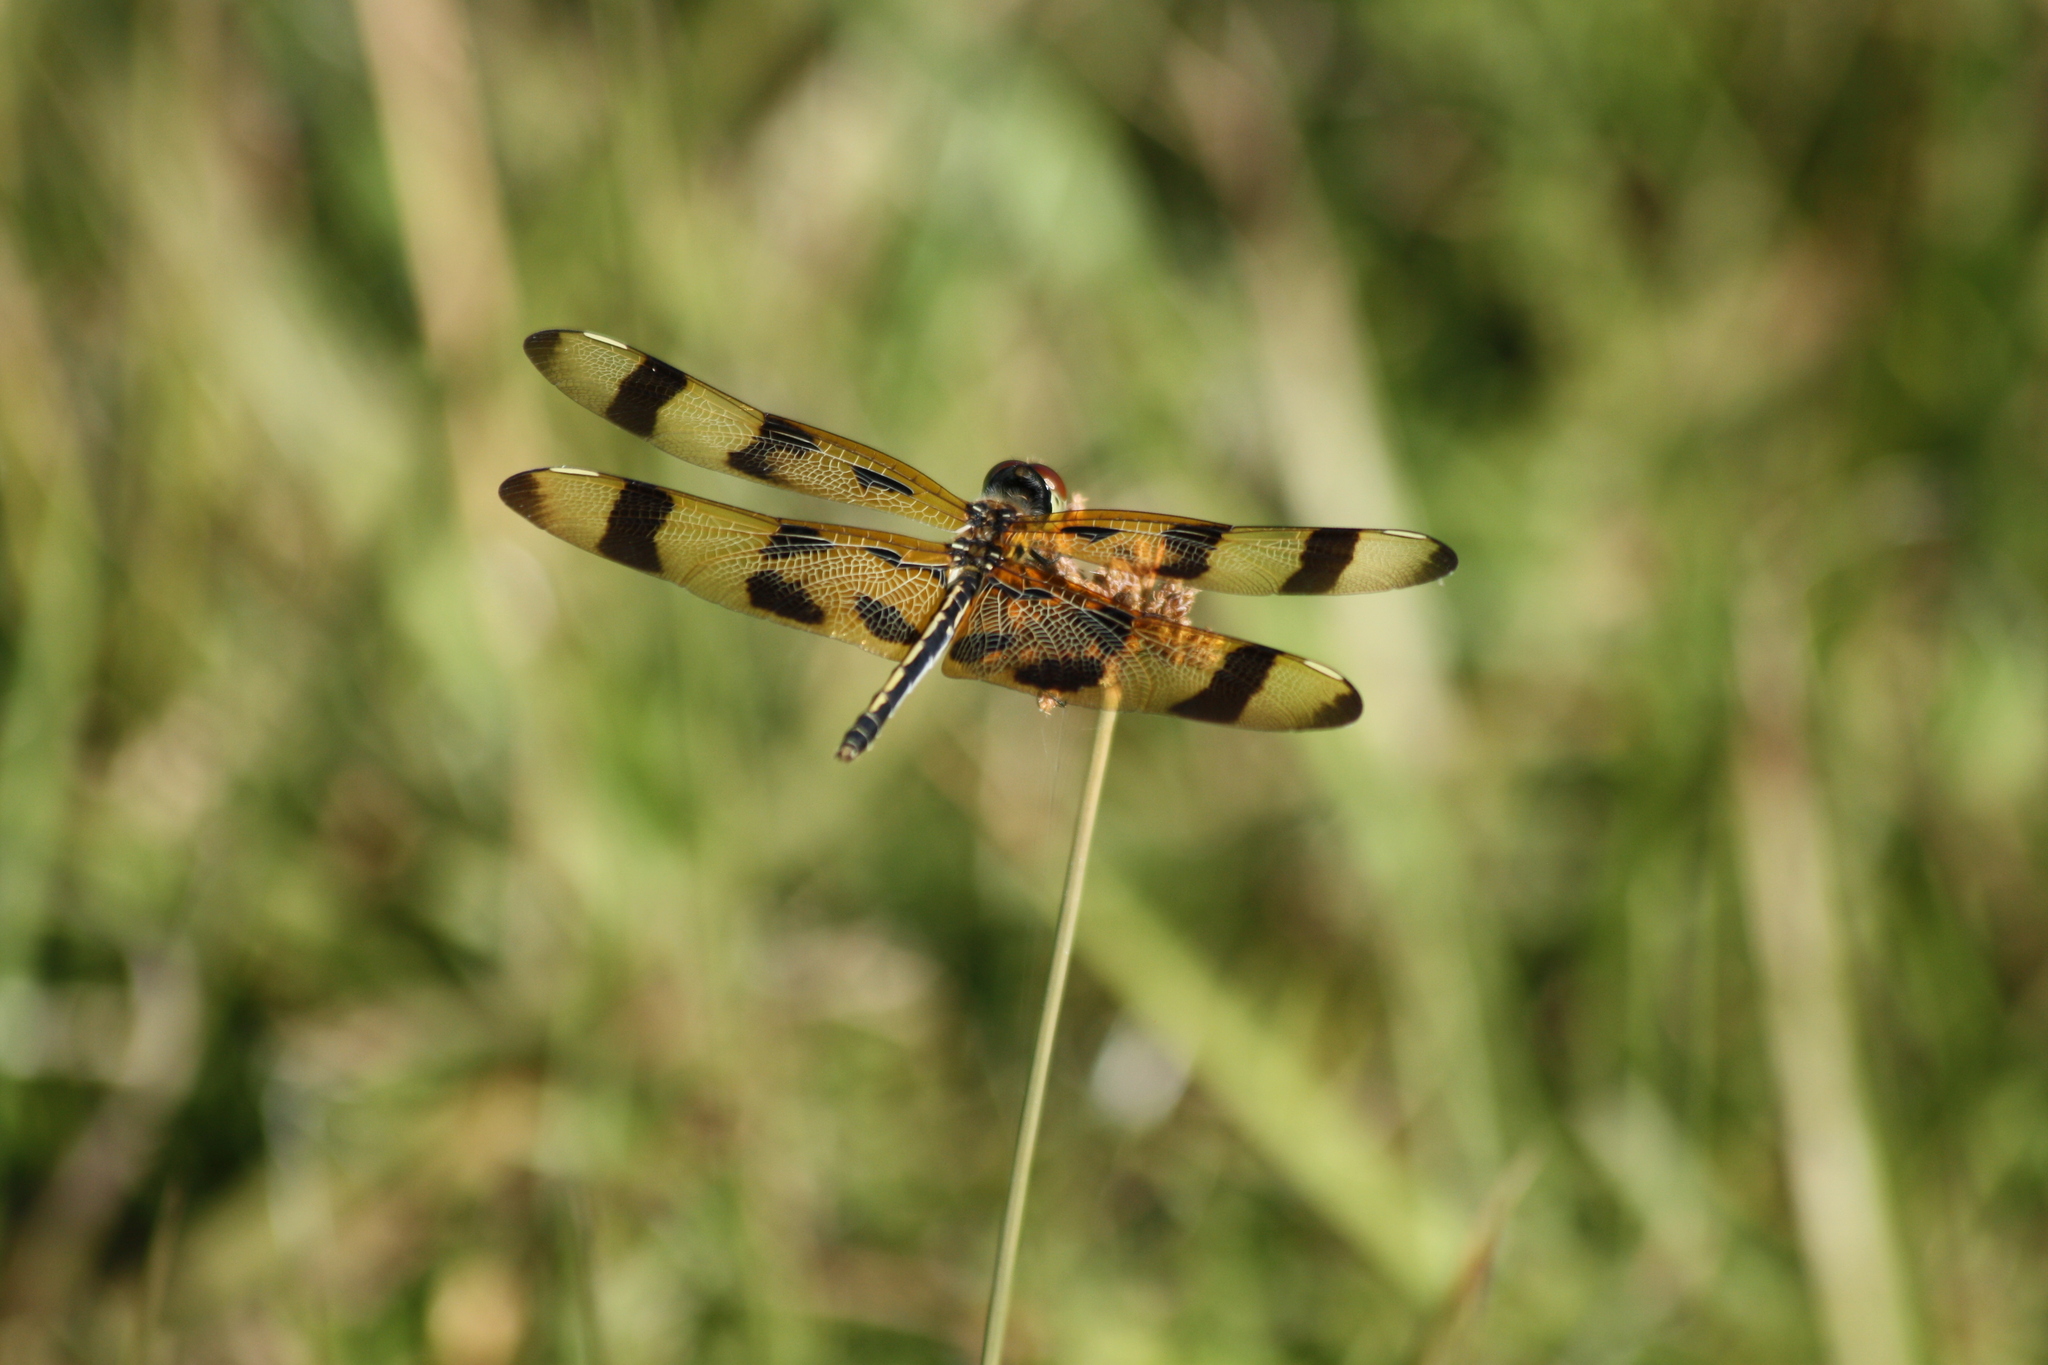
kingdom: Animalia
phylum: Arthropoda
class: Insecta
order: Odonata
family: Libellulidae
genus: Celithemis
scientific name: Celithemis eponina
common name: Halloween pennant
